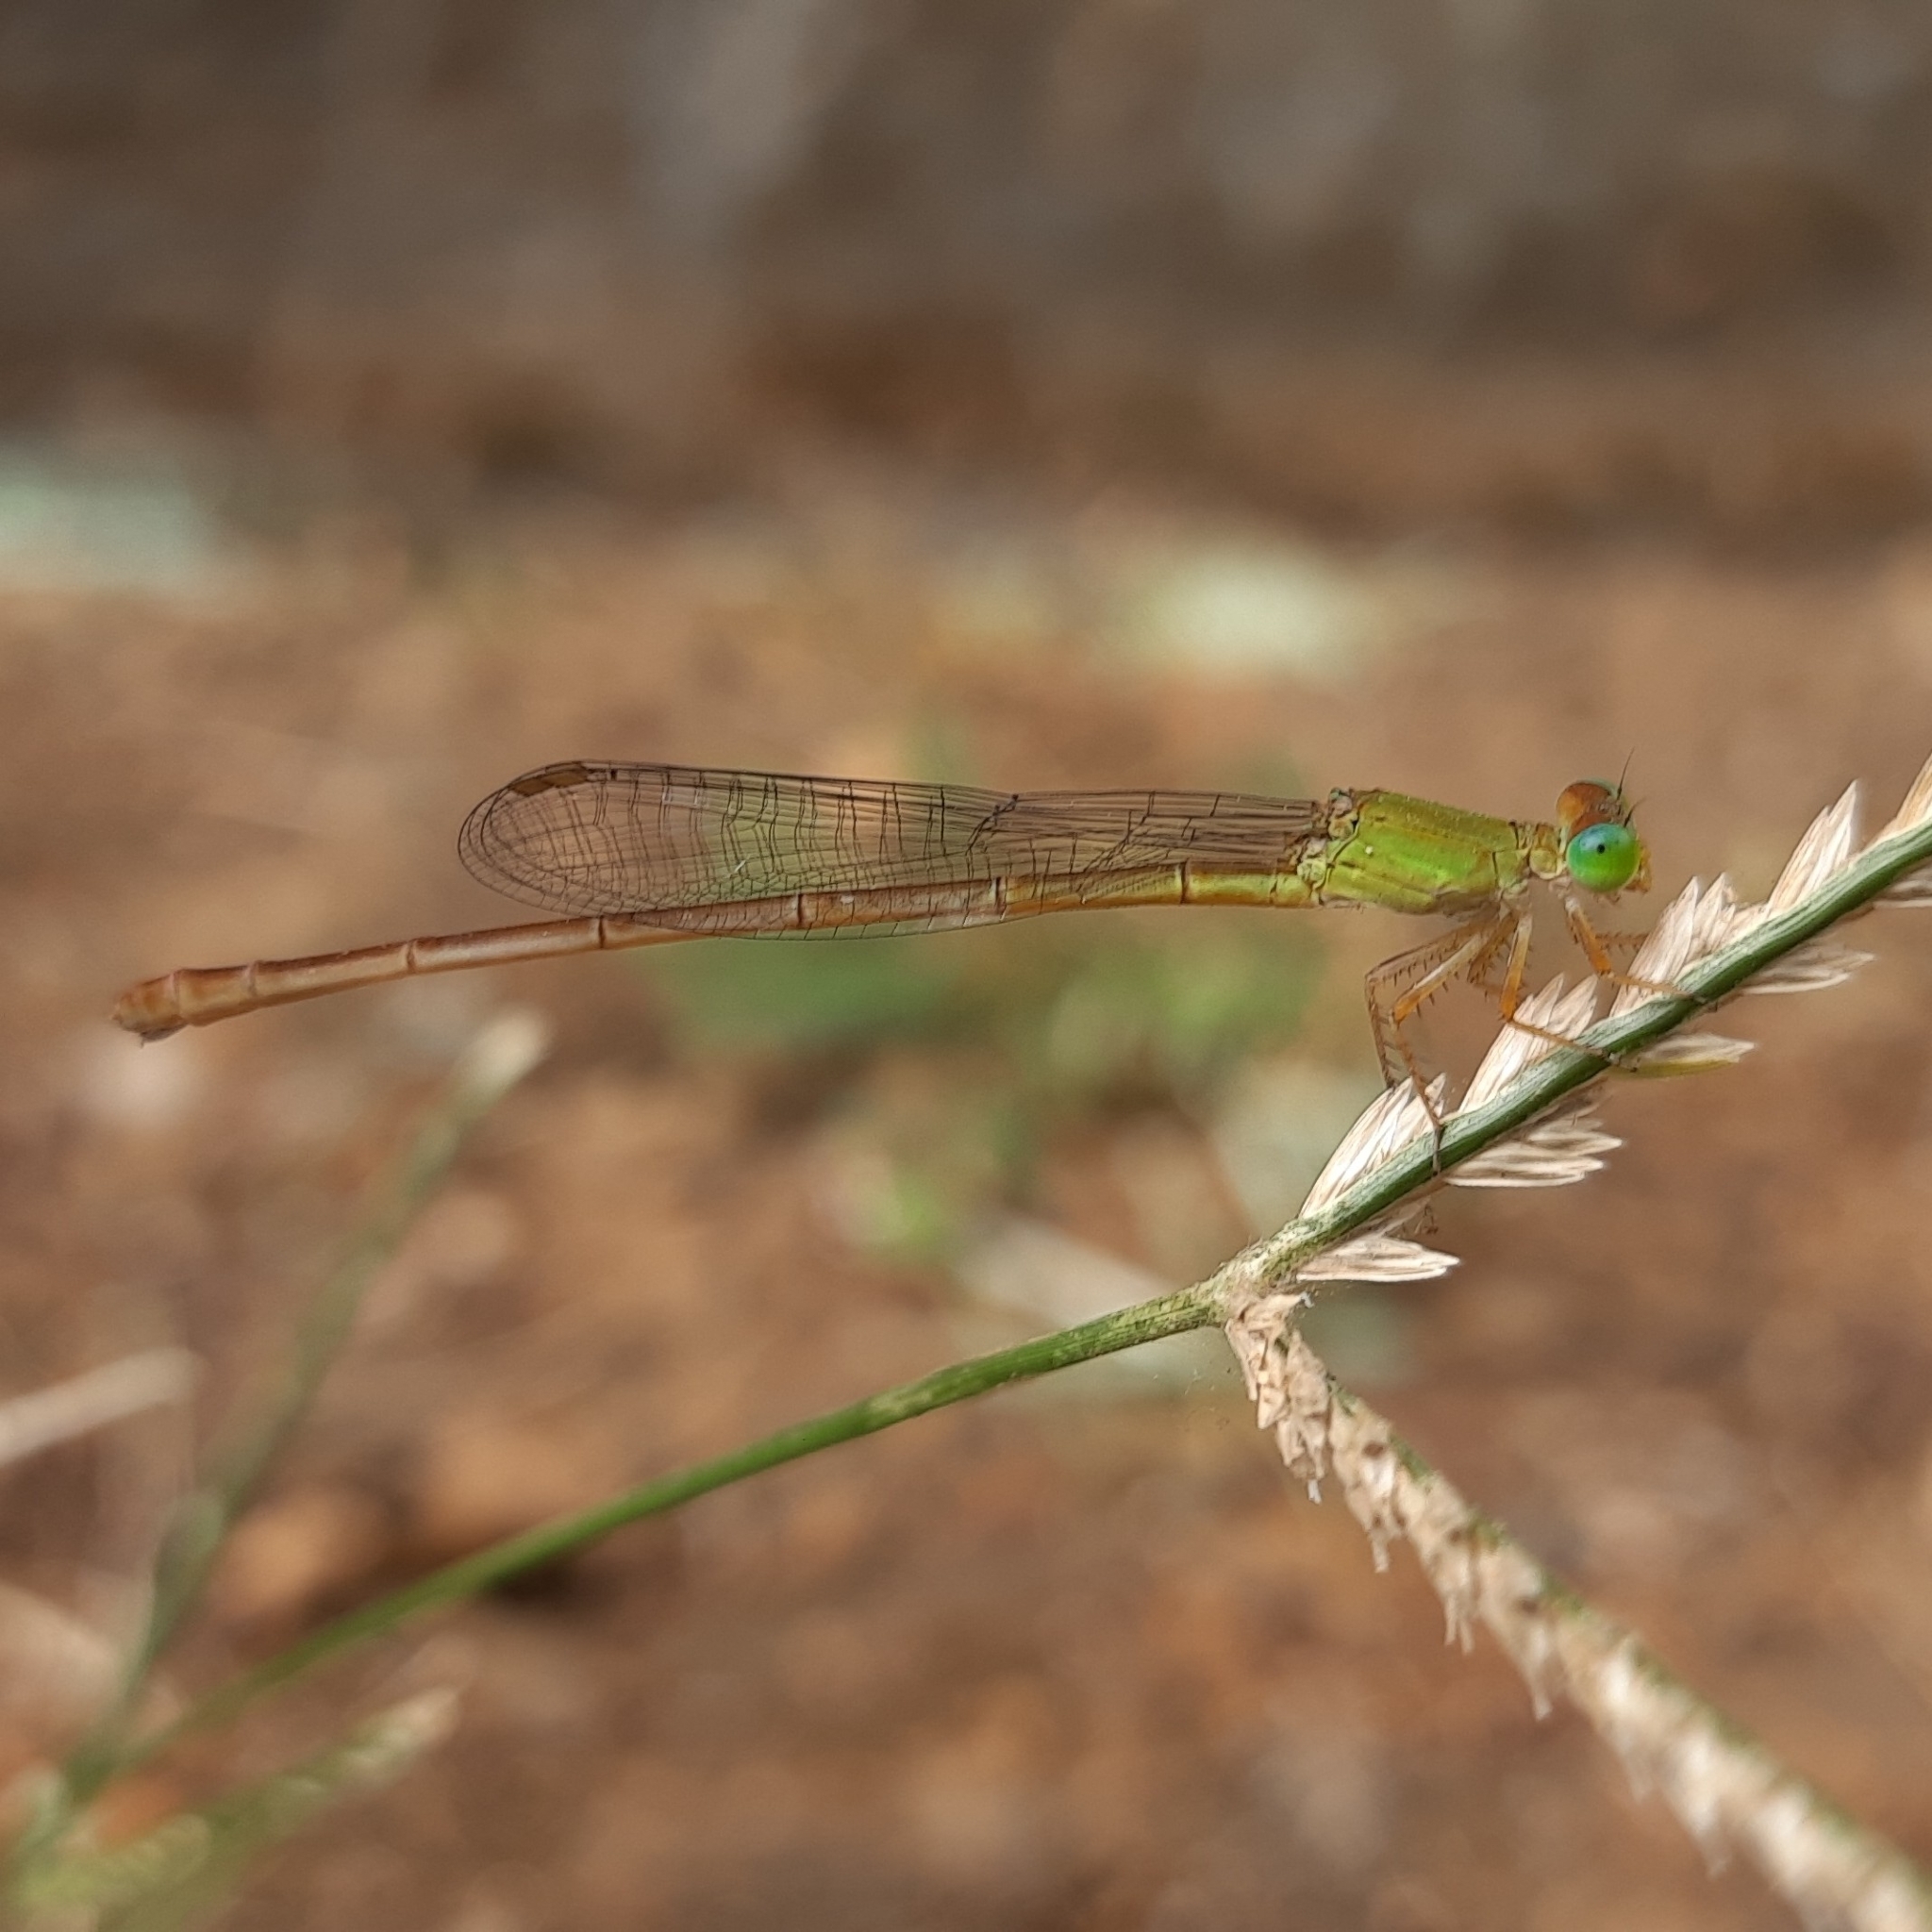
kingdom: Animalia
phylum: Arthropoda
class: Insecta
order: Odonata
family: Coenagrionidae
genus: Ceriagrion
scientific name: Ceriagrion coromandelianum
